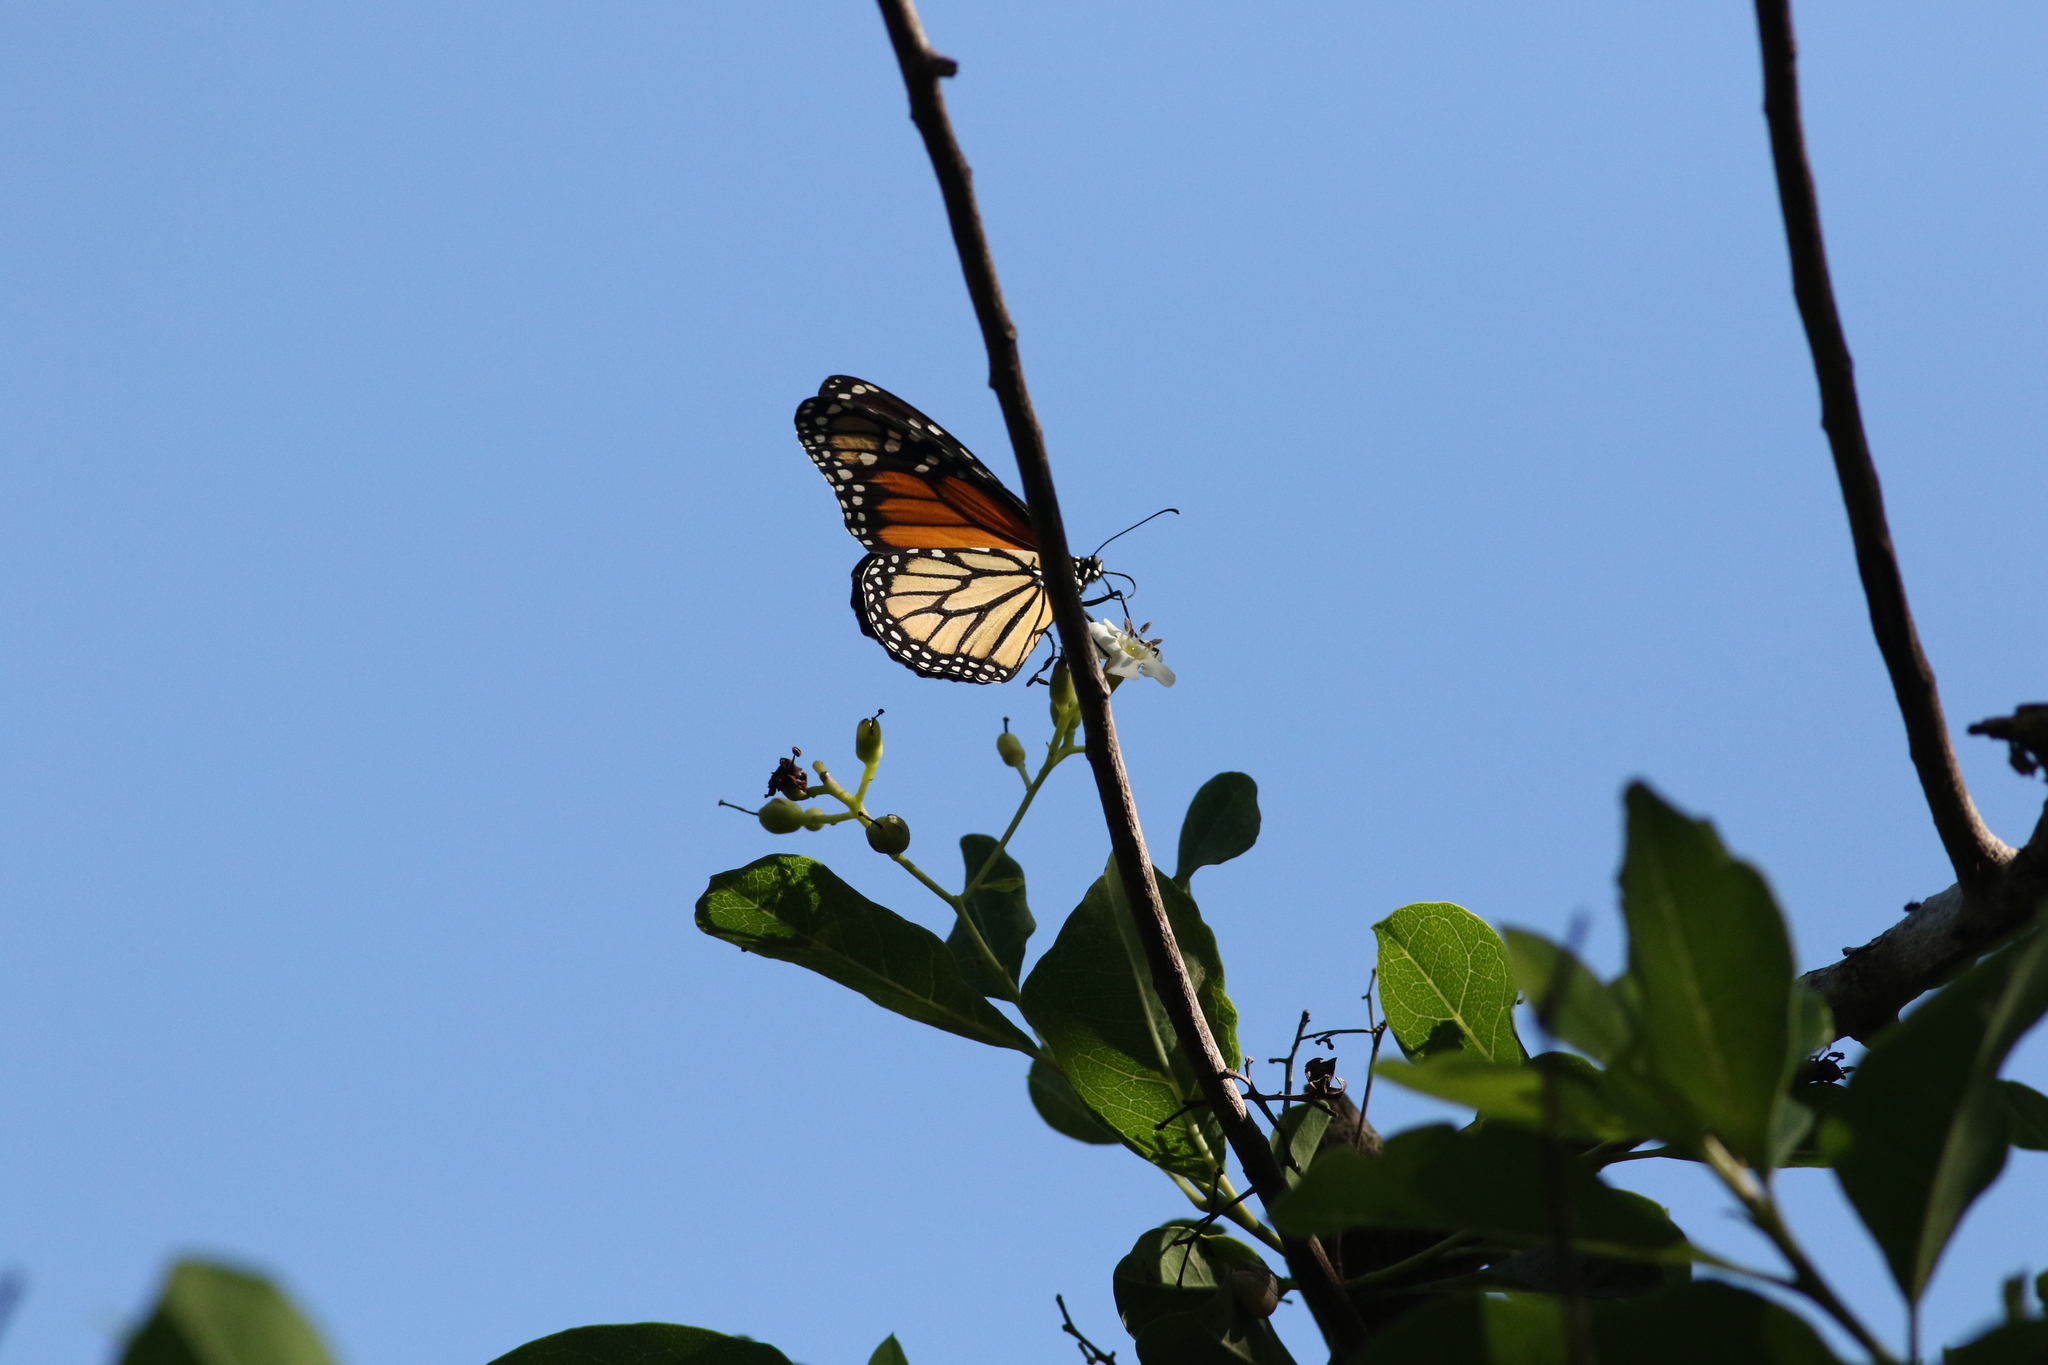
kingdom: Animalia
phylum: Arthropoda
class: Insecta
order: Lepidoptera
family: Nymphalidae
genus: Danaus
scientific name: Danaus plexippus
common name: Monarch
